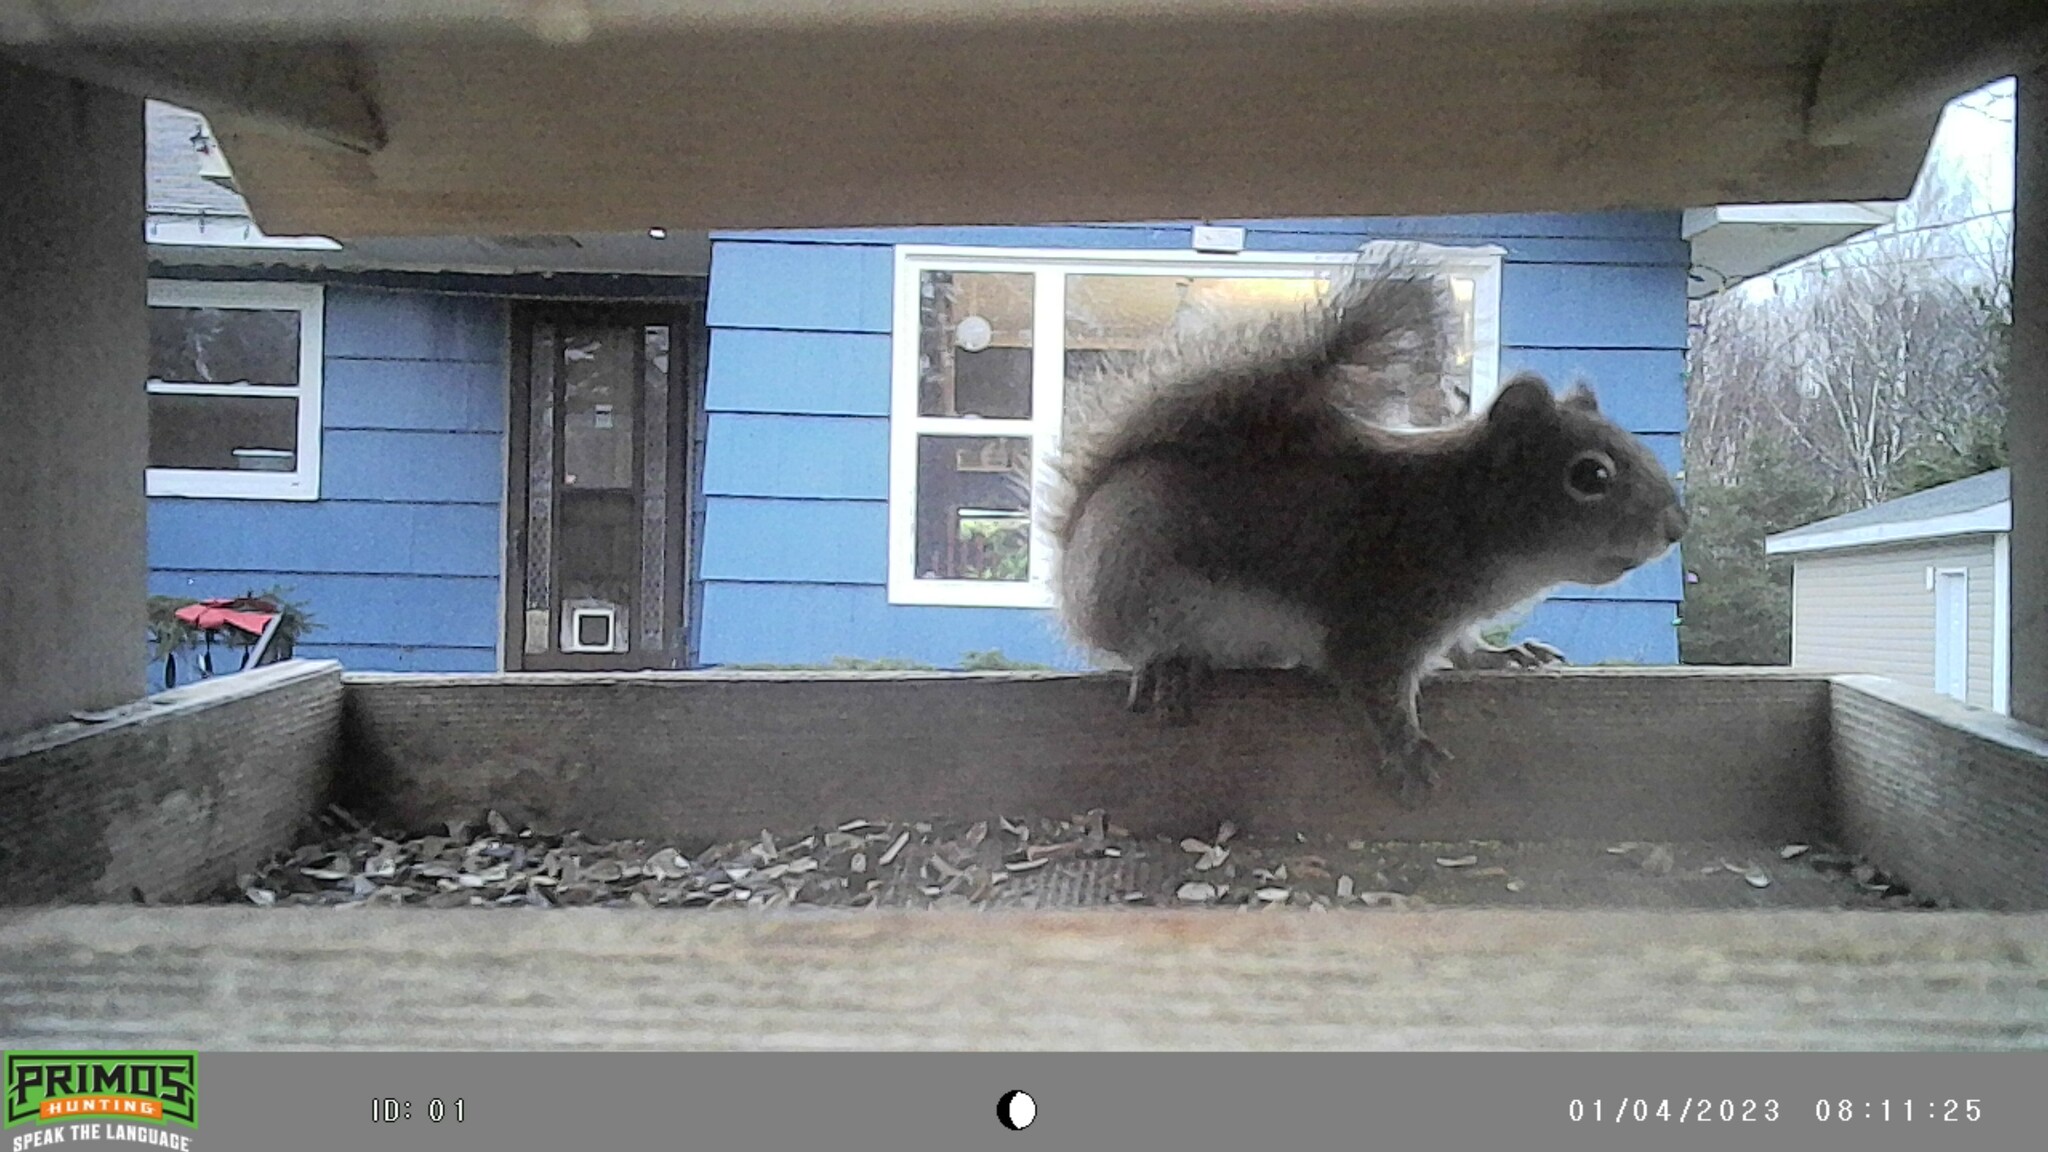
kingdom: Animalia
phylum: Chordata
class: Mammalia
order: Rodentia
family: Sciuridae
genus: Tamiasciurus
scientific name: Tamiasciurus hudsonicus
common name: Red squirrel
